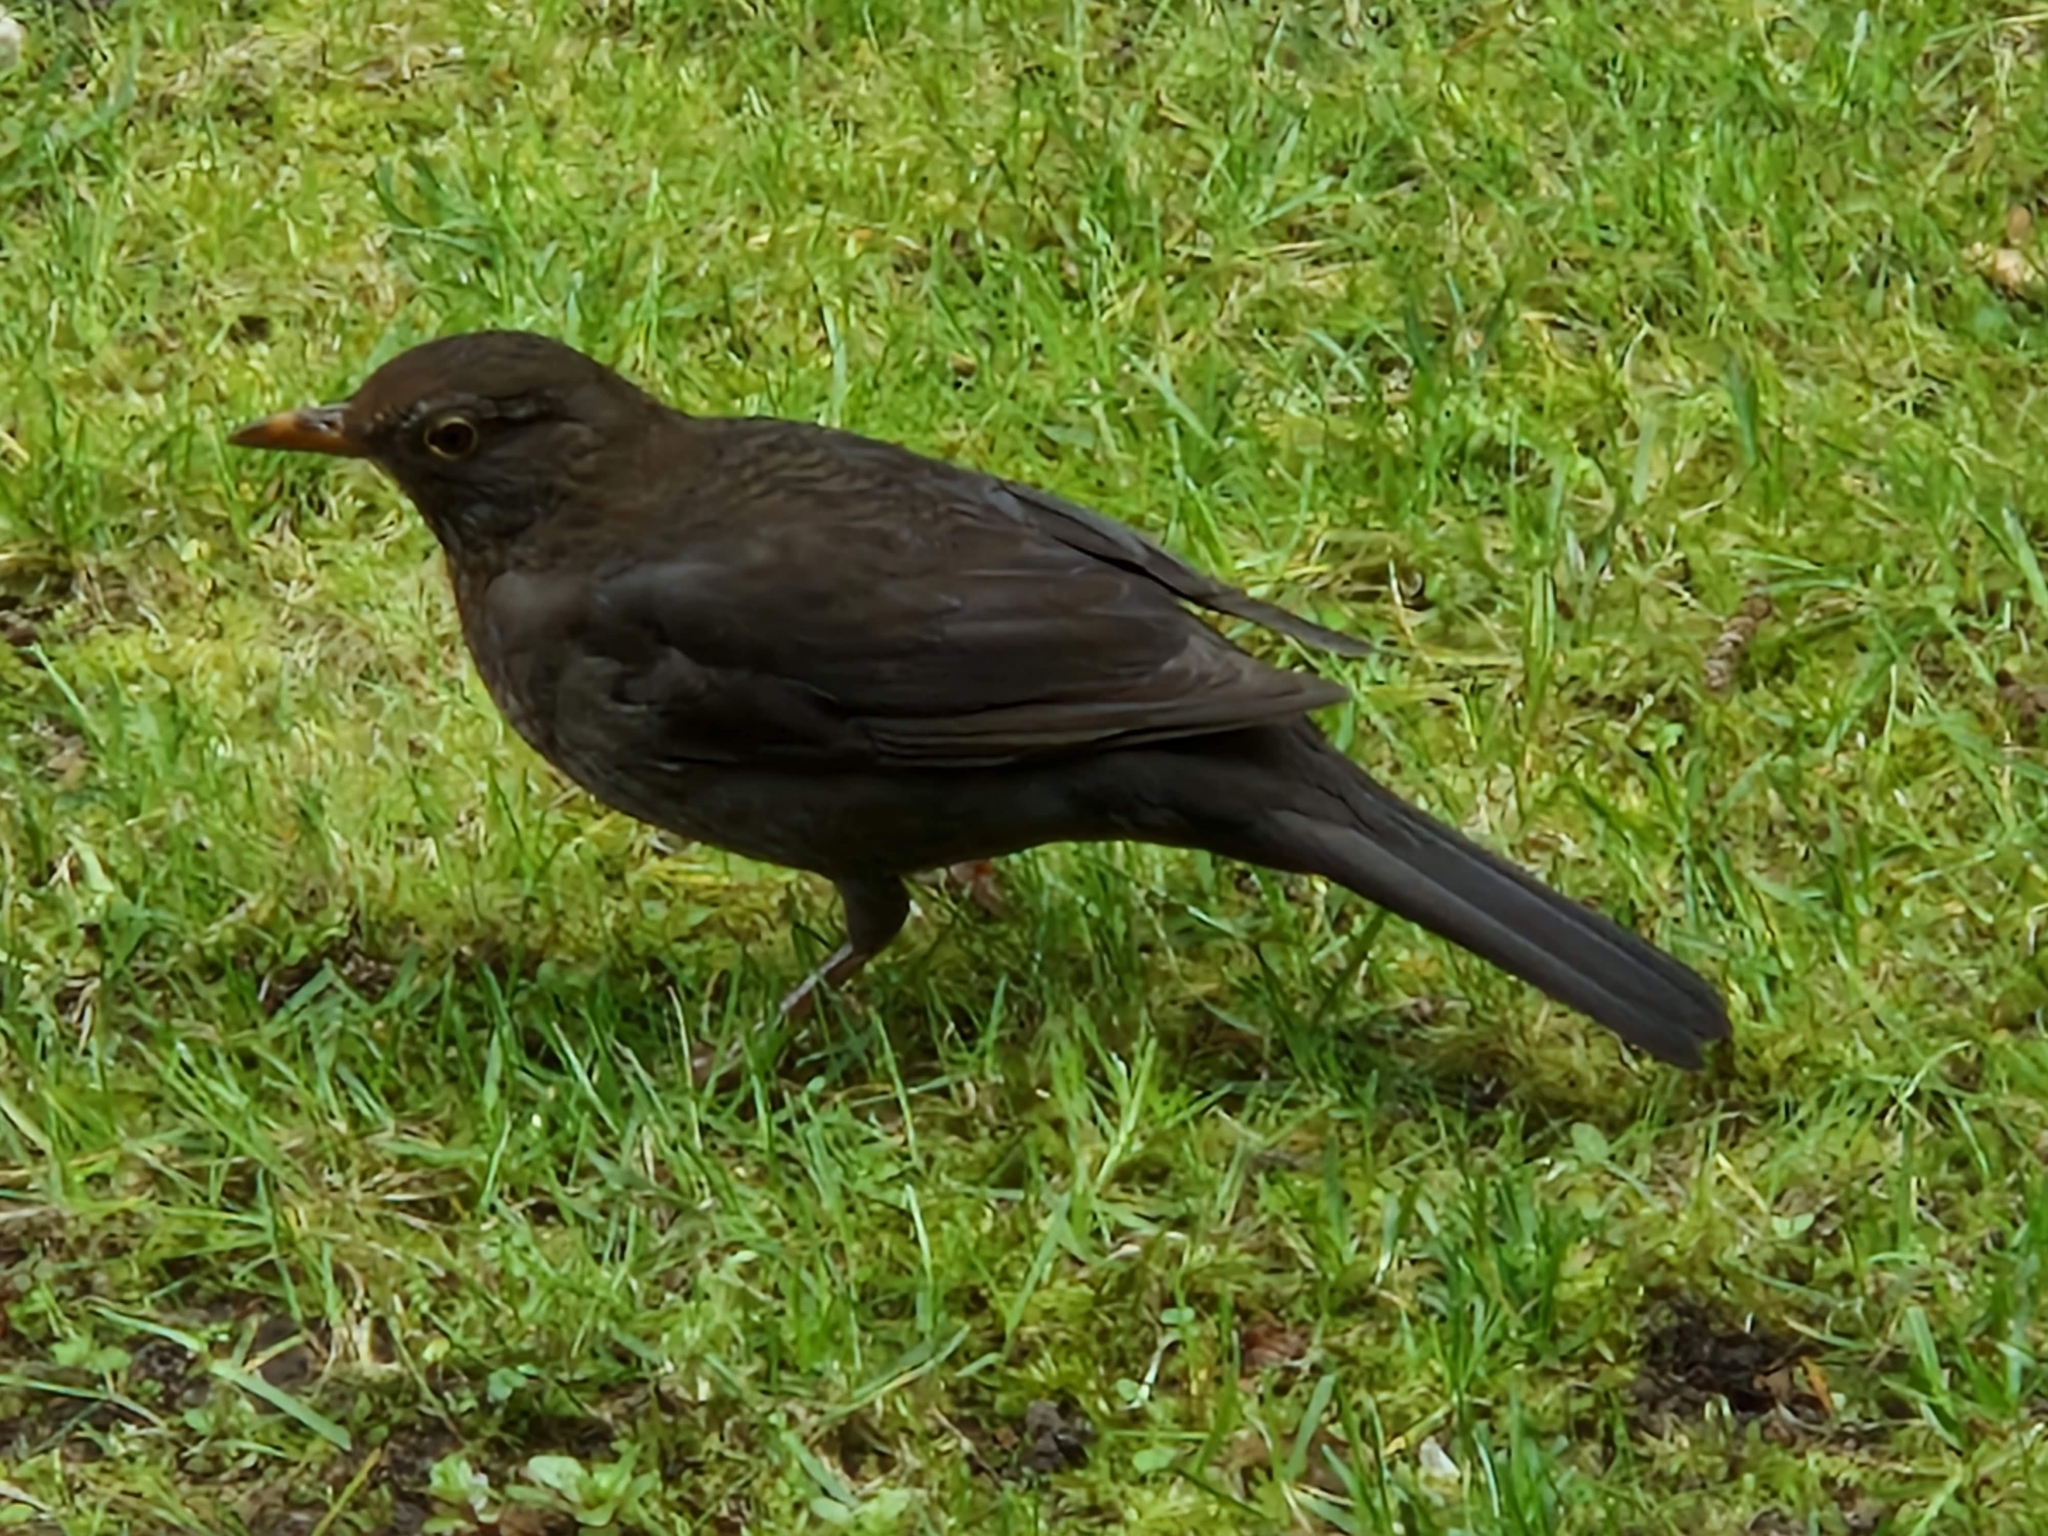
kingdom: Animalia
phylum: Chordata
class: Aves
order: Passeriformes
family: Turdidae
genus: Turdus
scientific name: Turdus merula
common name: Common blackbird
